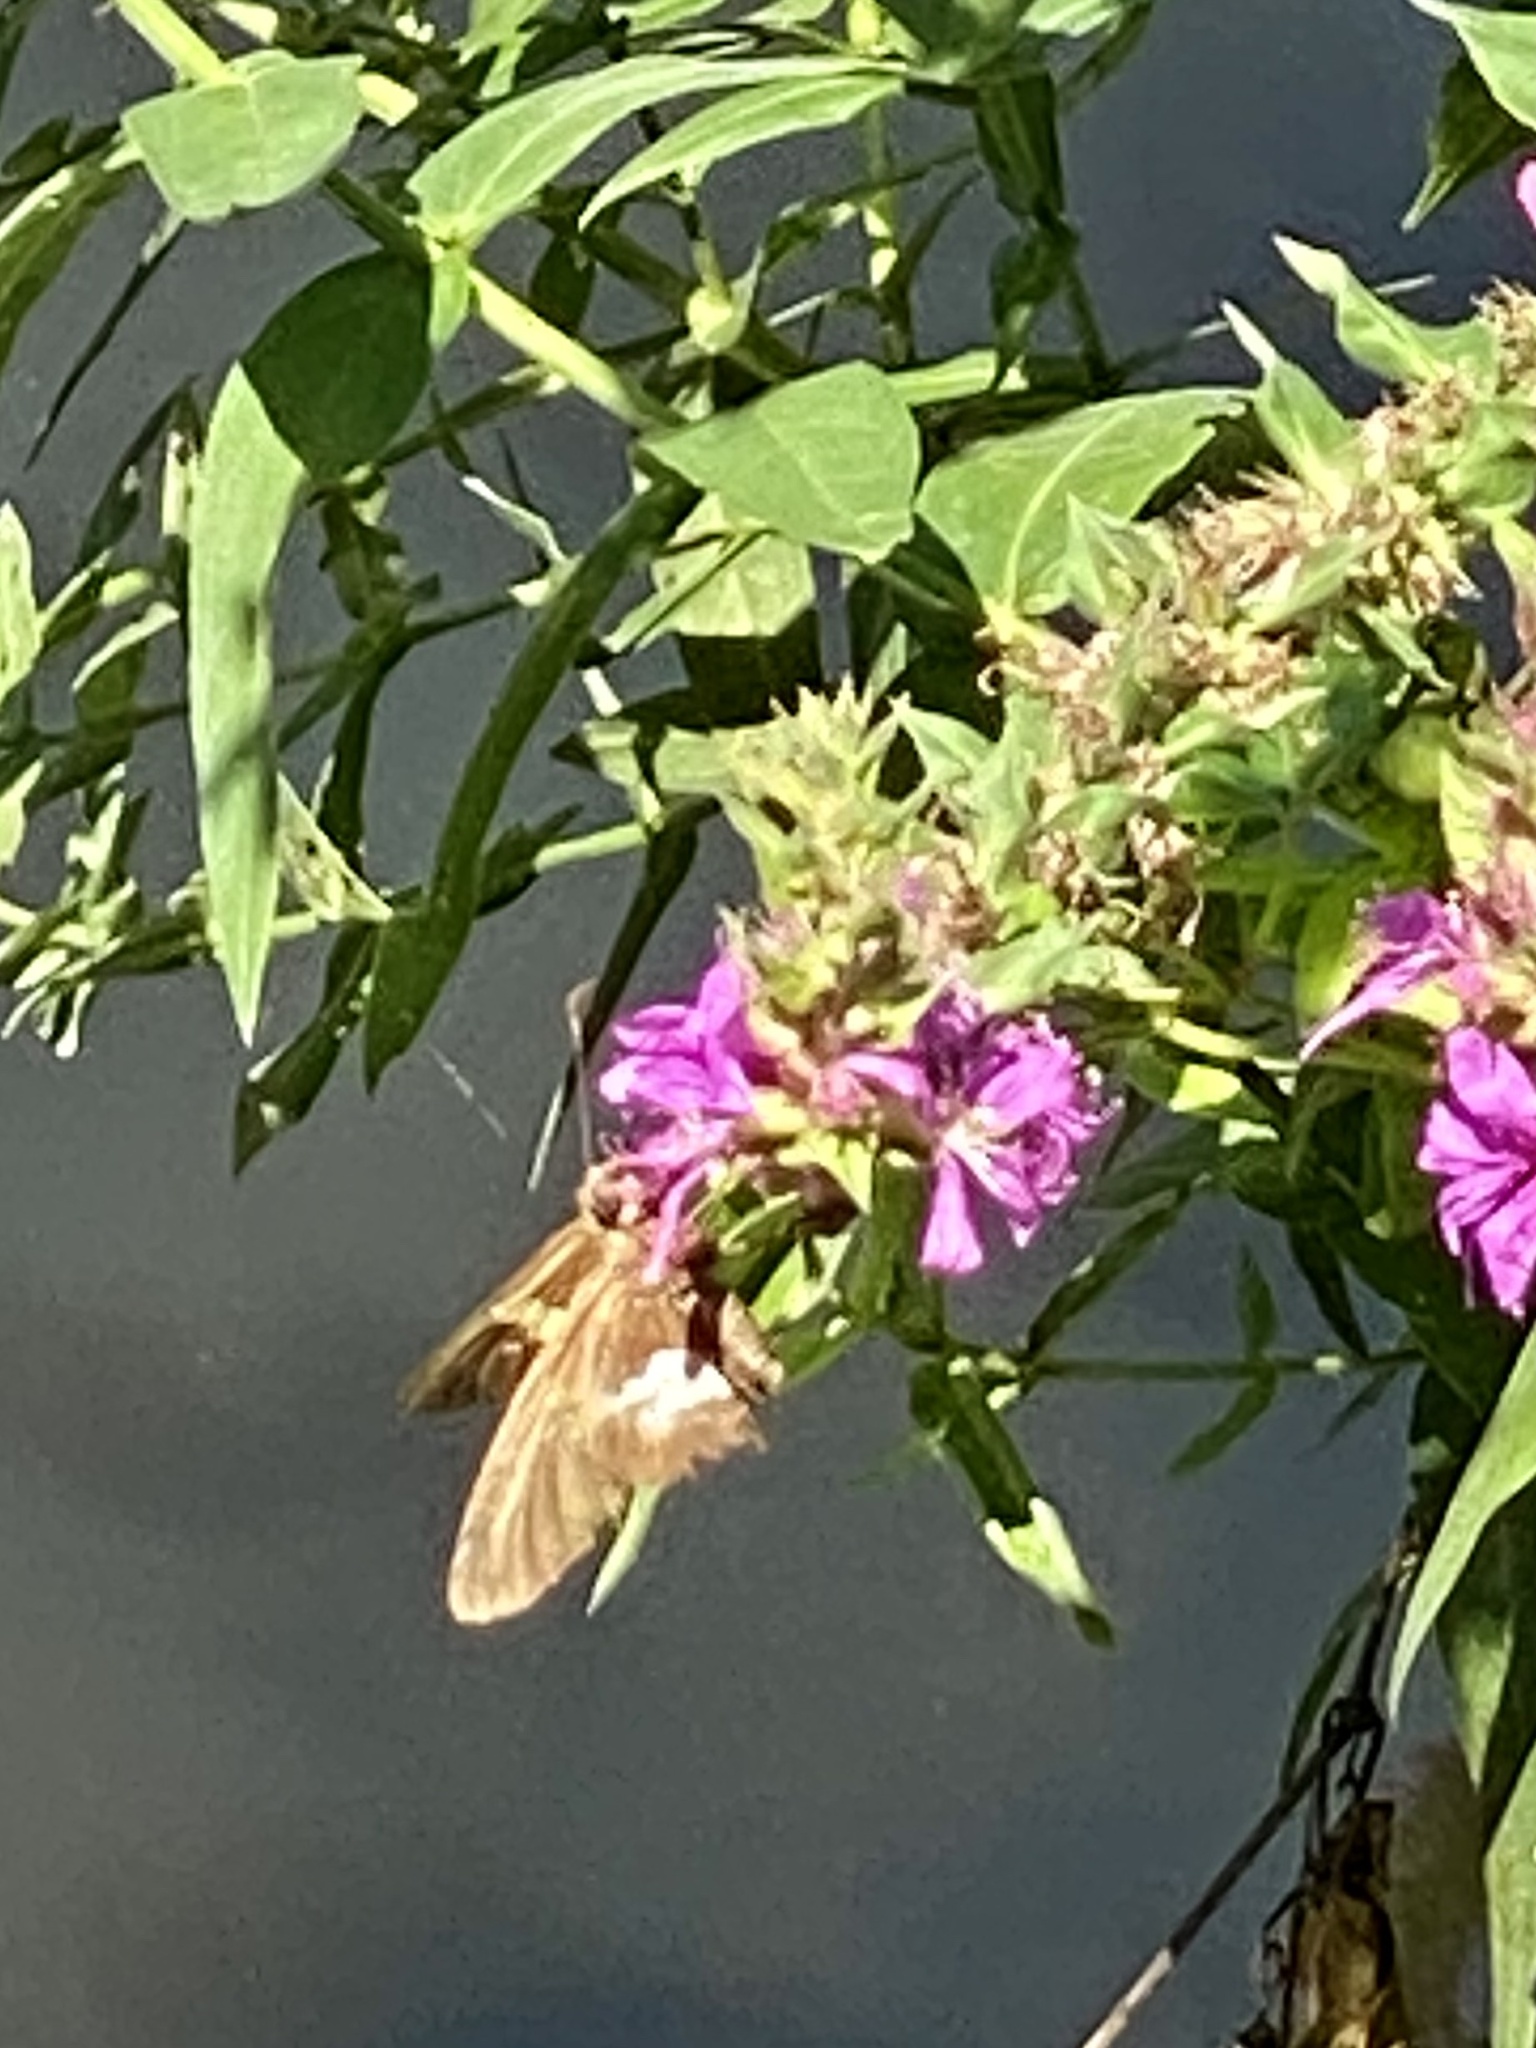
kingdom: Animalia
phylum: Arthropoda
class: Insecta
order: Lepidoptera
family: Hesperiidae
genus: Epargyreus
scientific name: Epargyreus clarus
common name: Silver-spotted skipper
